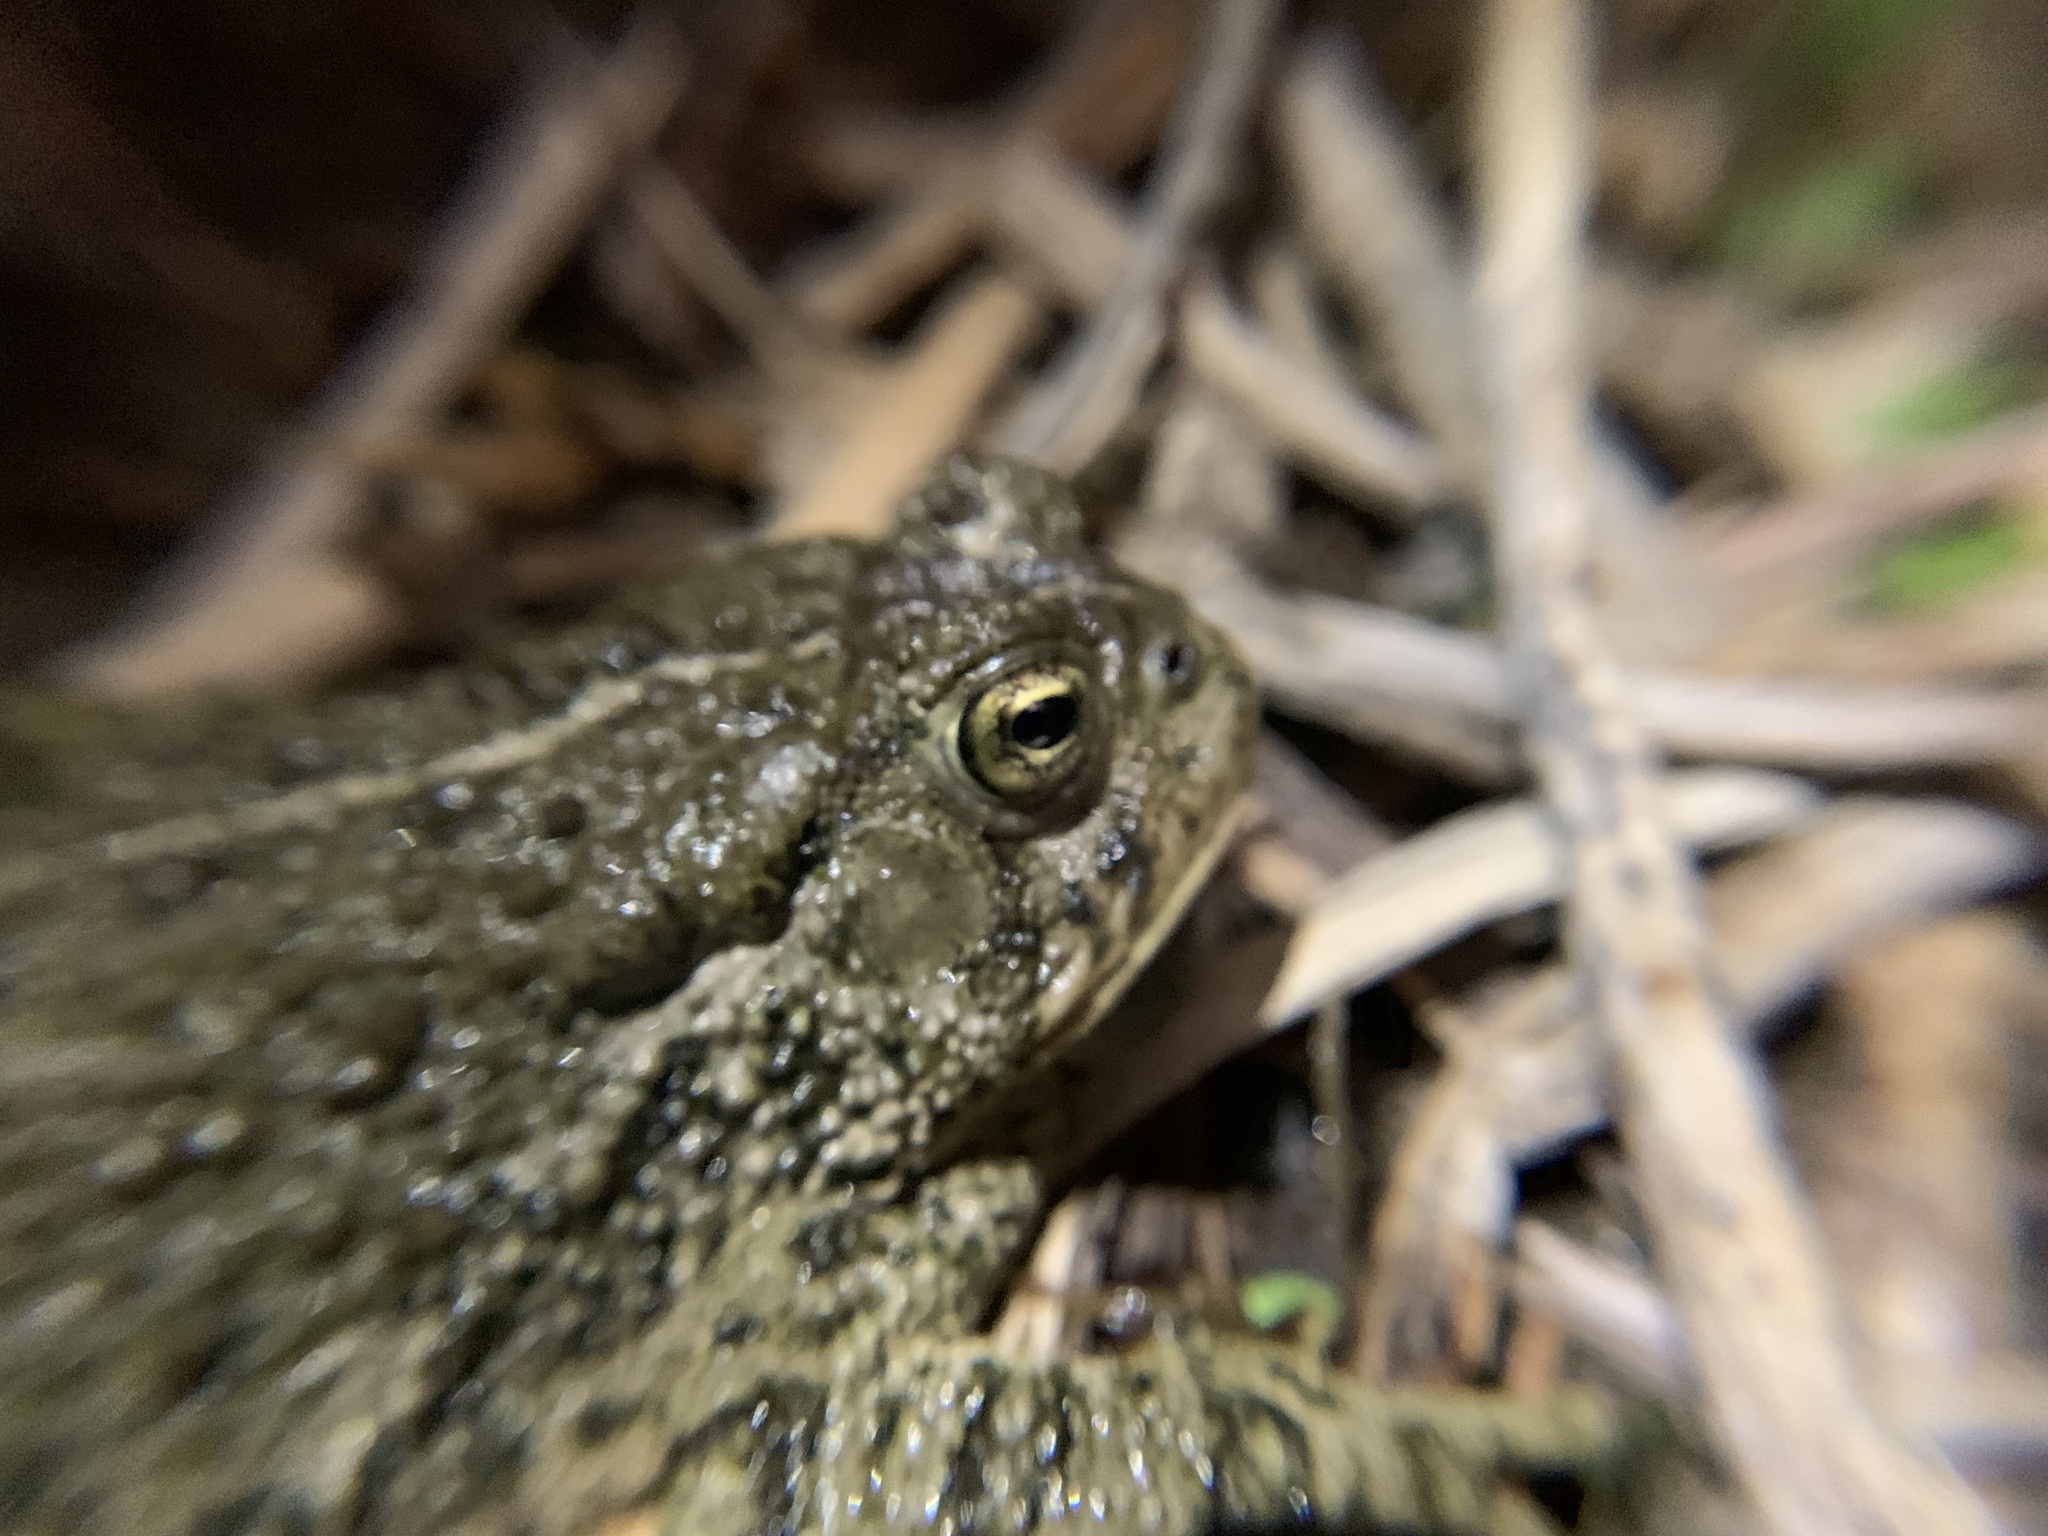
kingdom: Animalia
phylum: Chordata
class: Amphibia
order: Anura
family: Bufonidae
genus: Anaxyrus
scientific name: Anaxyrus woodhousii
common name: Woodhouse's toad
